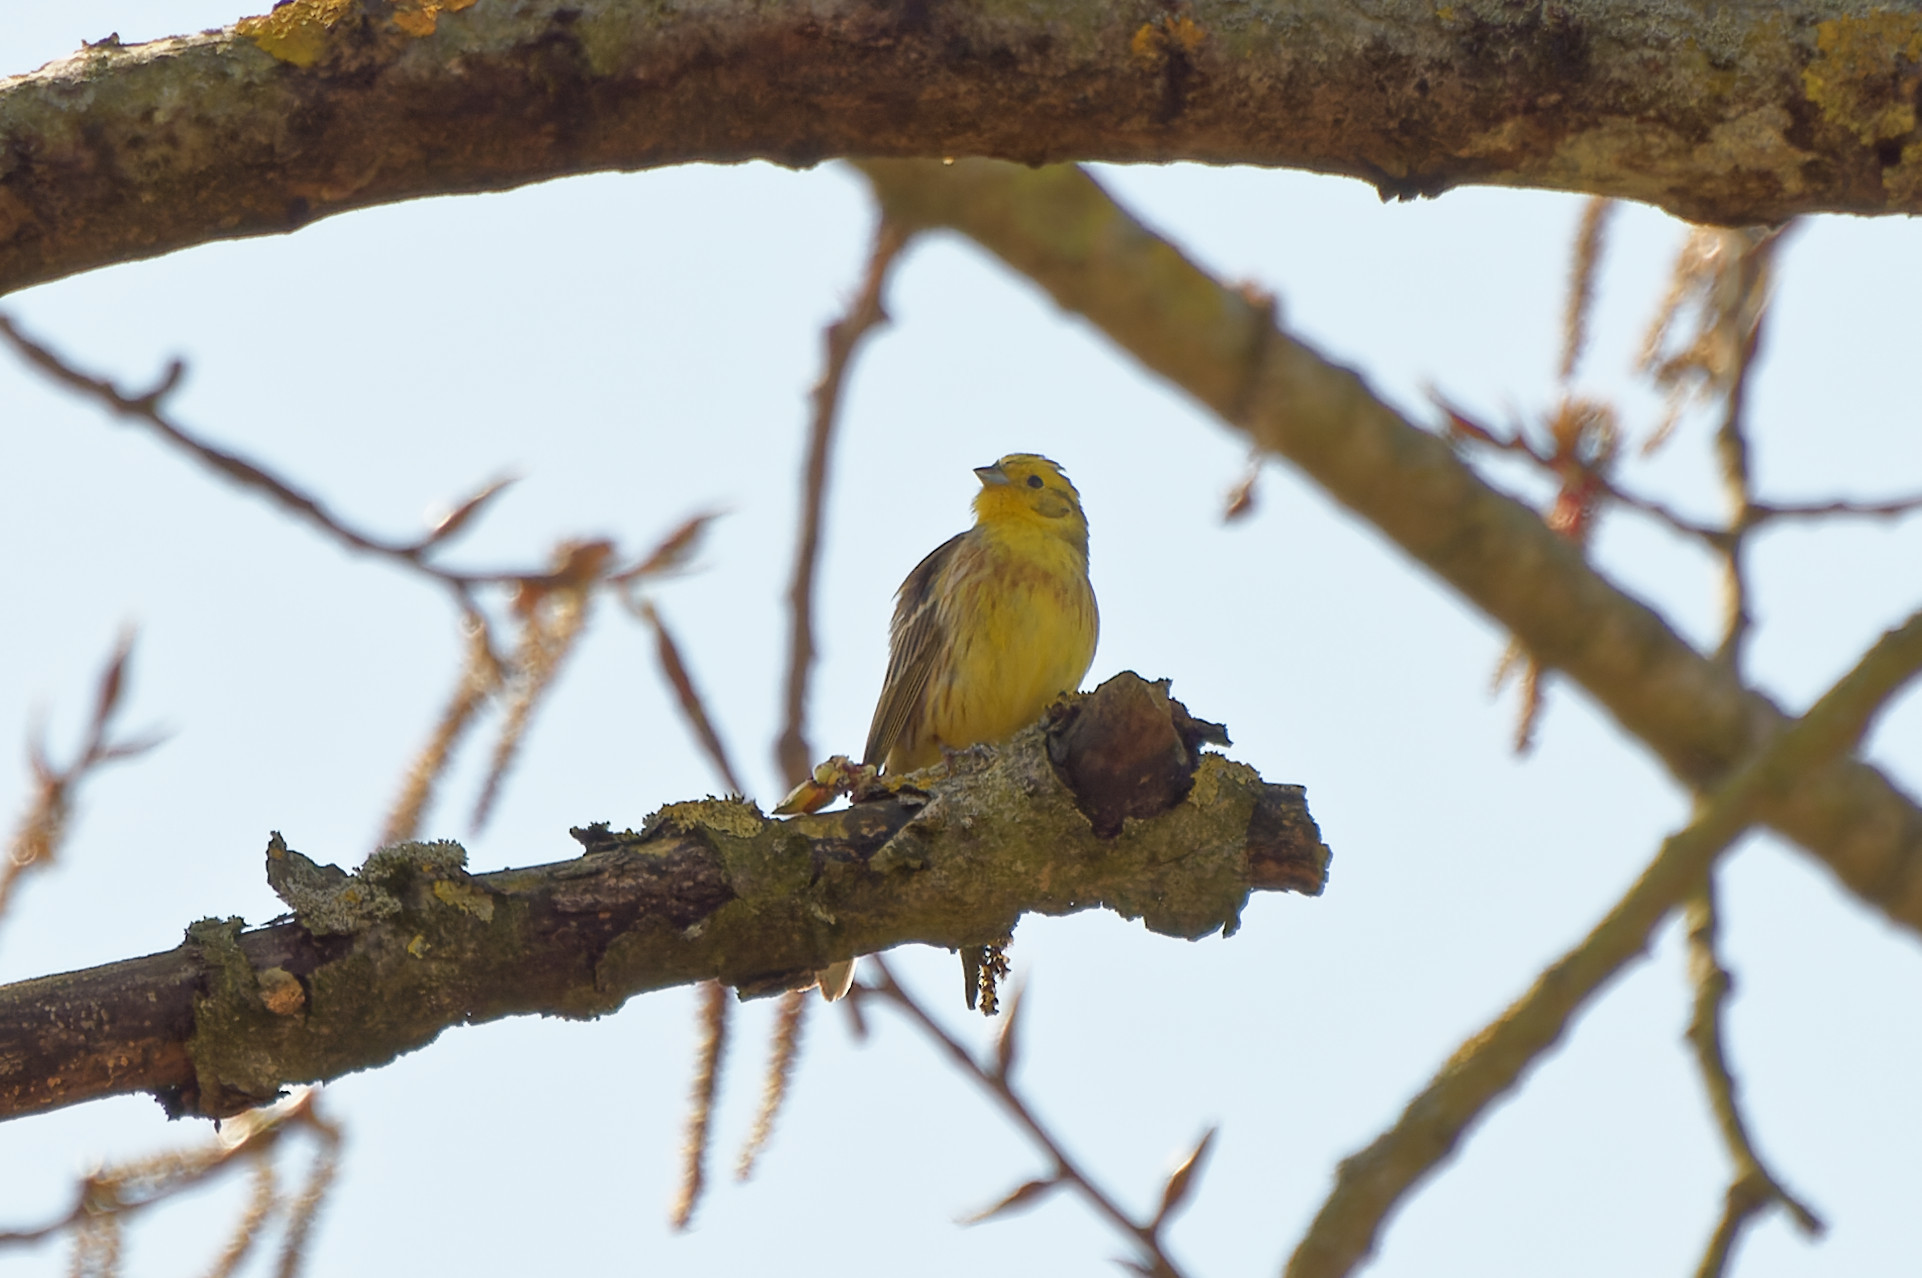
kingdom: Animalia
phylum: Chordata
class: Aves
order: Passeriformes
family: Emberizidae
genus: Emberiza
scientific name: Emberiza citrinella
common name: Yellowhammer
